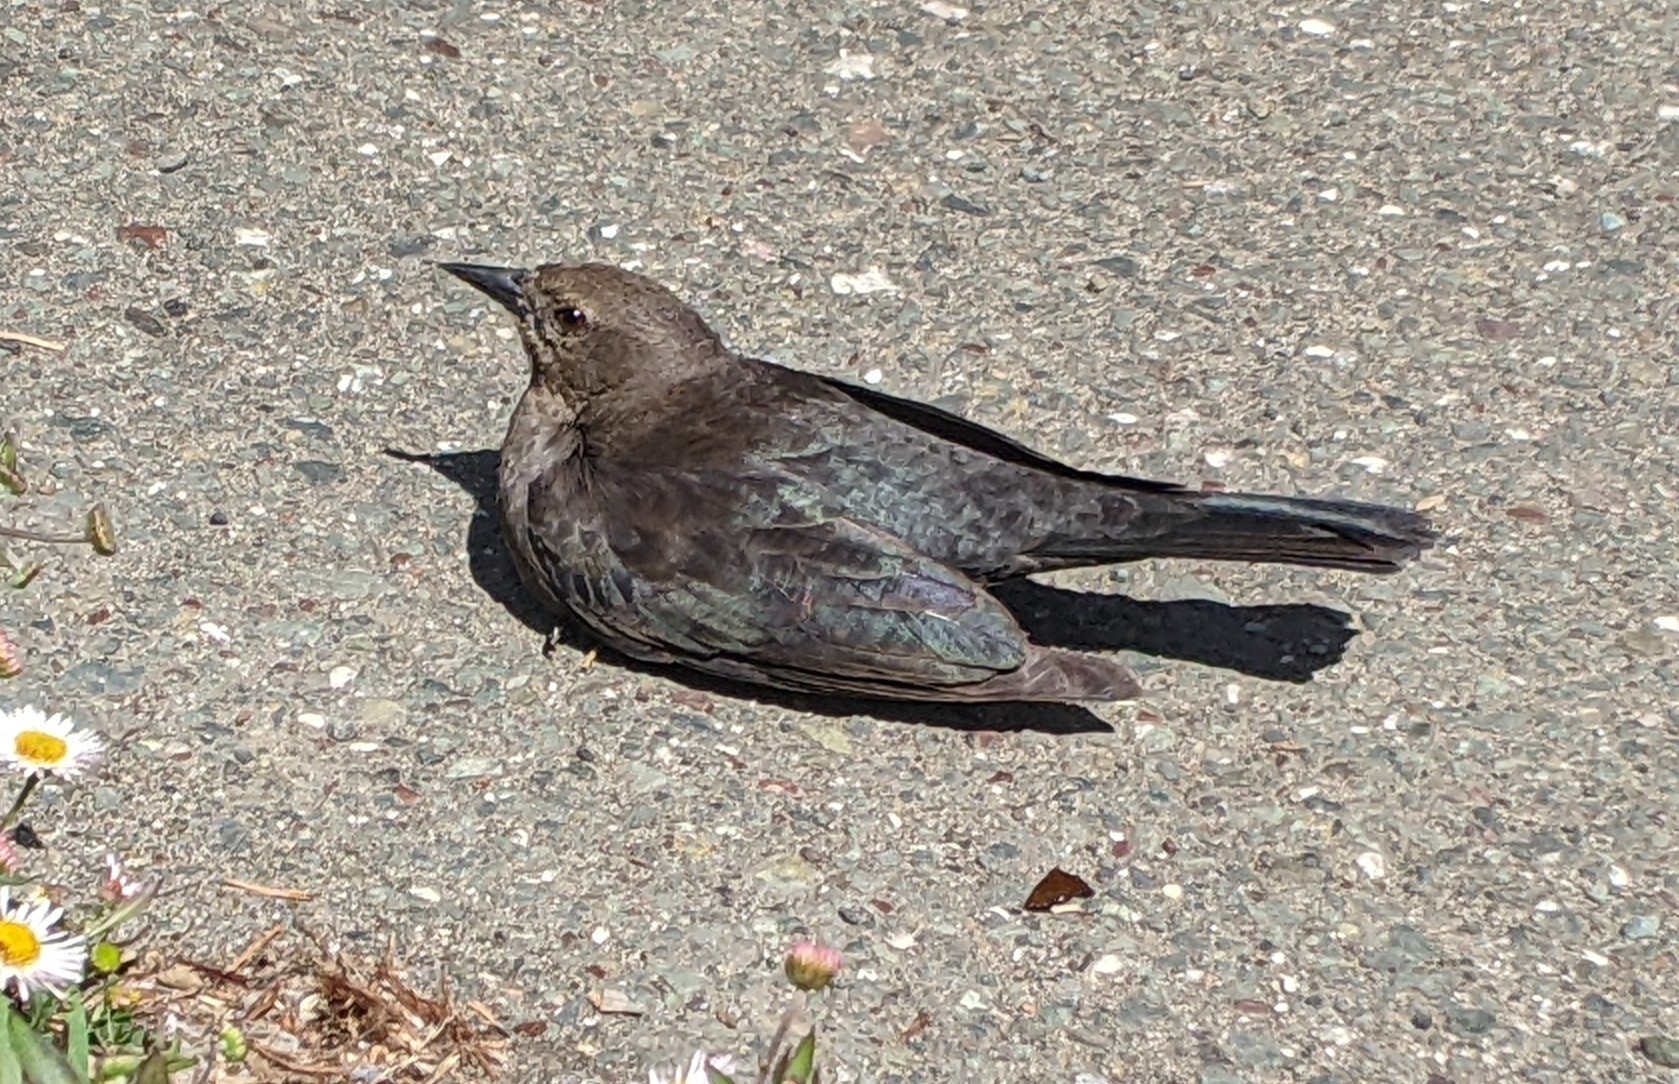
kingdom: Animalia
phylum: Chordata
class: Aves
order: Passeriformes
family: Icteridae
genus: Euphagus
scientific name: Euphagus cyanocephalus
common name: Brewer's blackbird
